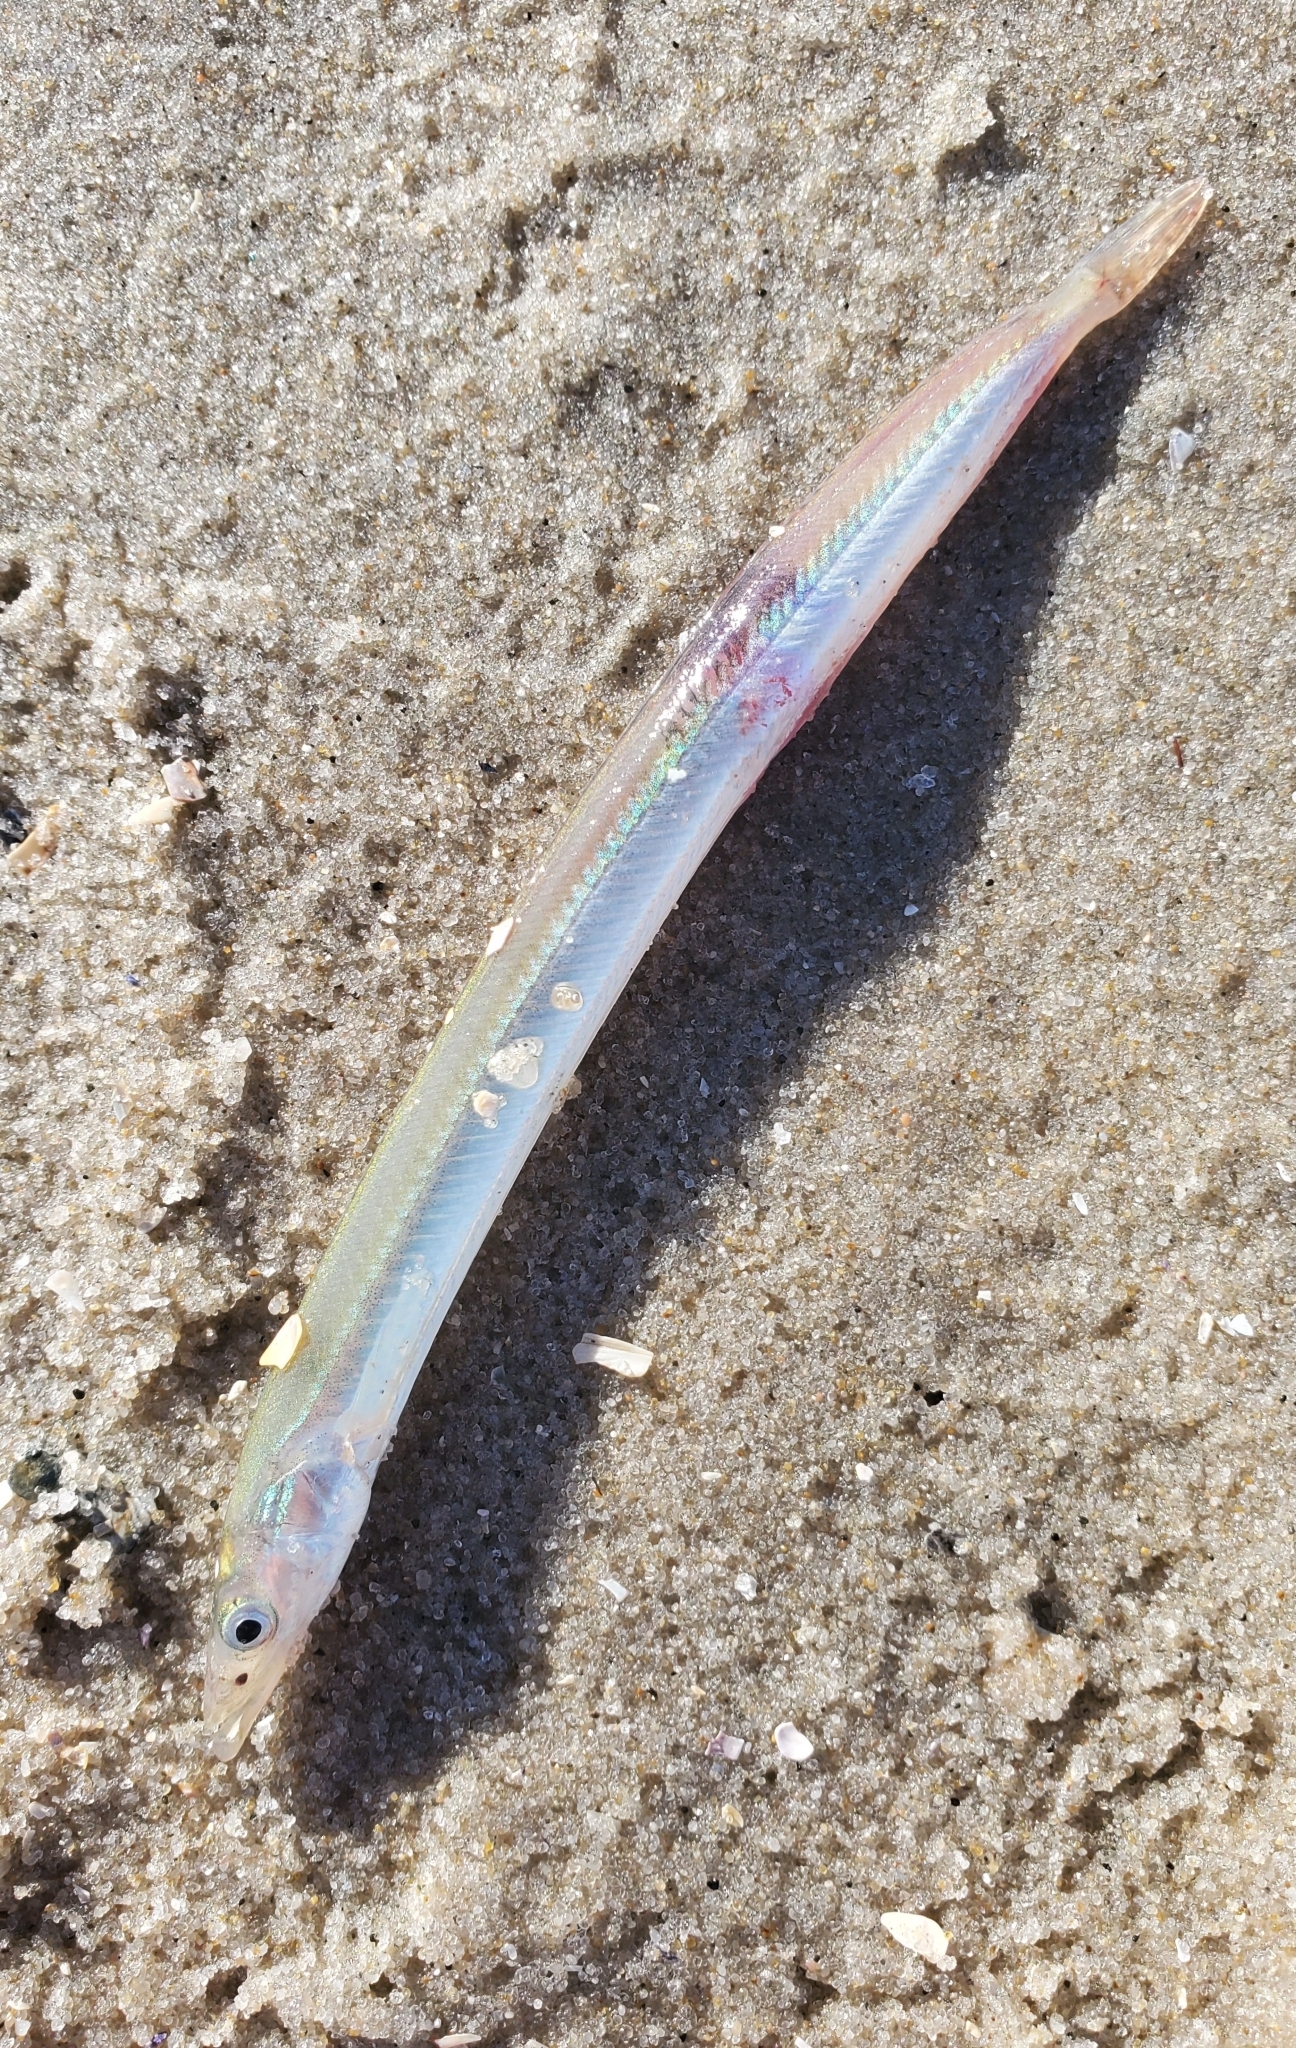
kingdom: Animalia
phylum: Chordata
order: Perciformes
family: Ammodytidae
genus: Ammodytes
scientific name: Ammodytes
